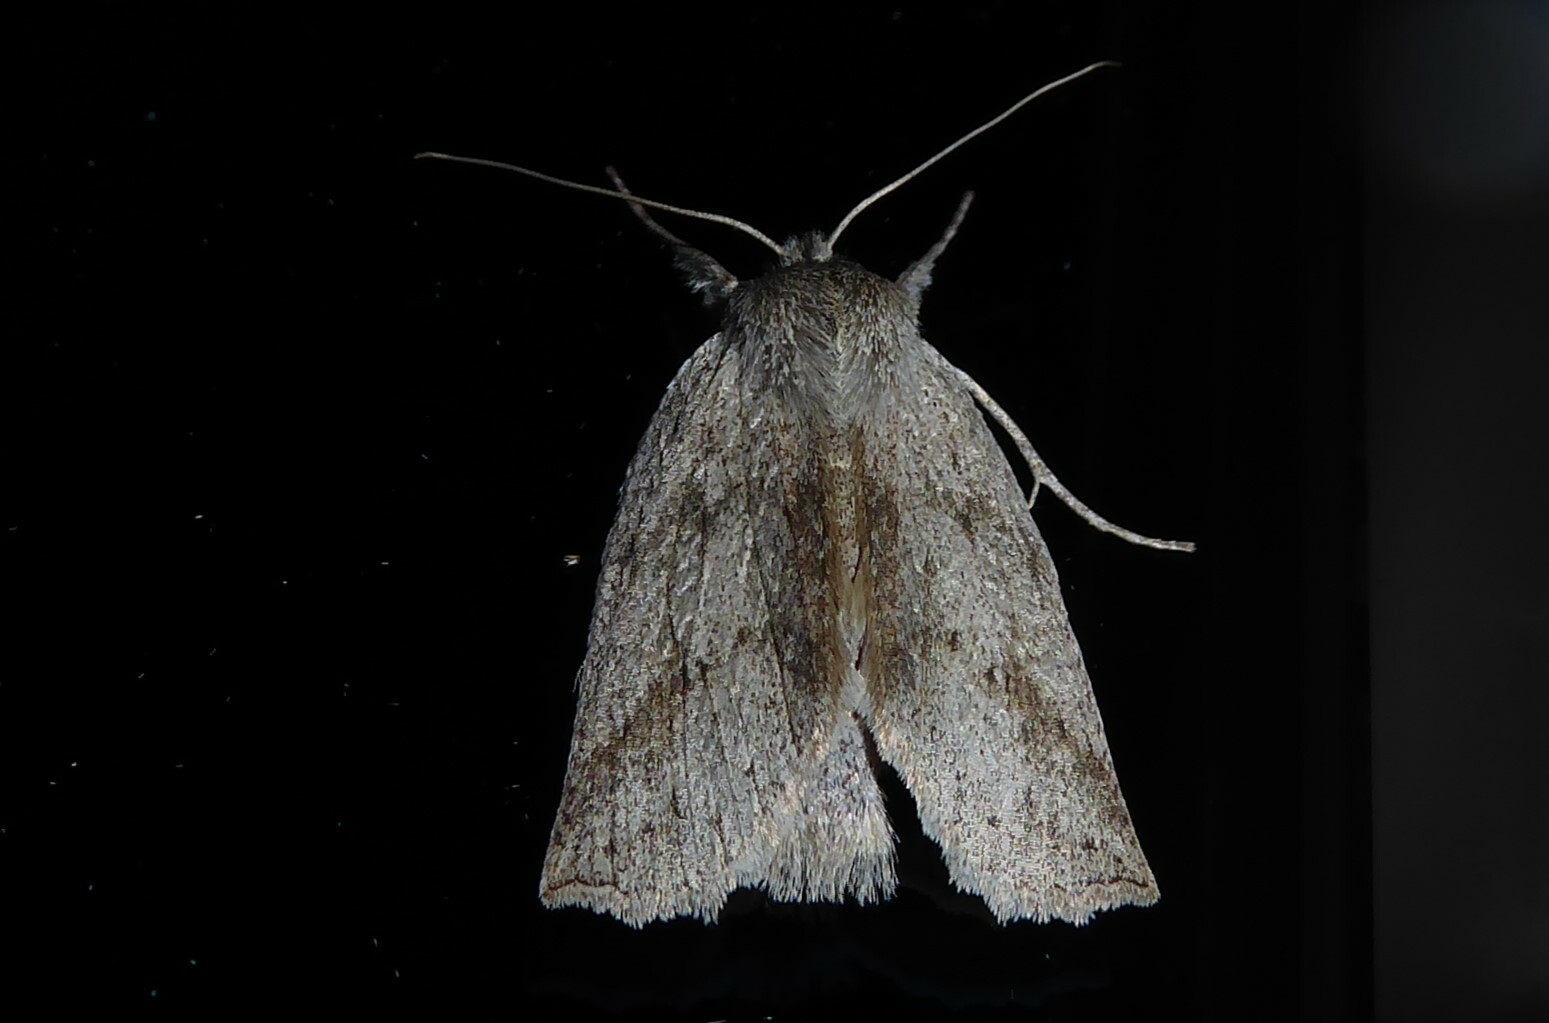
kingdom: Animalia
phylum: Arthropoda
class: Insecta
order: Lepidoptera
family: Geometridae
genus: Declana
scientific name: Declana leptomera
